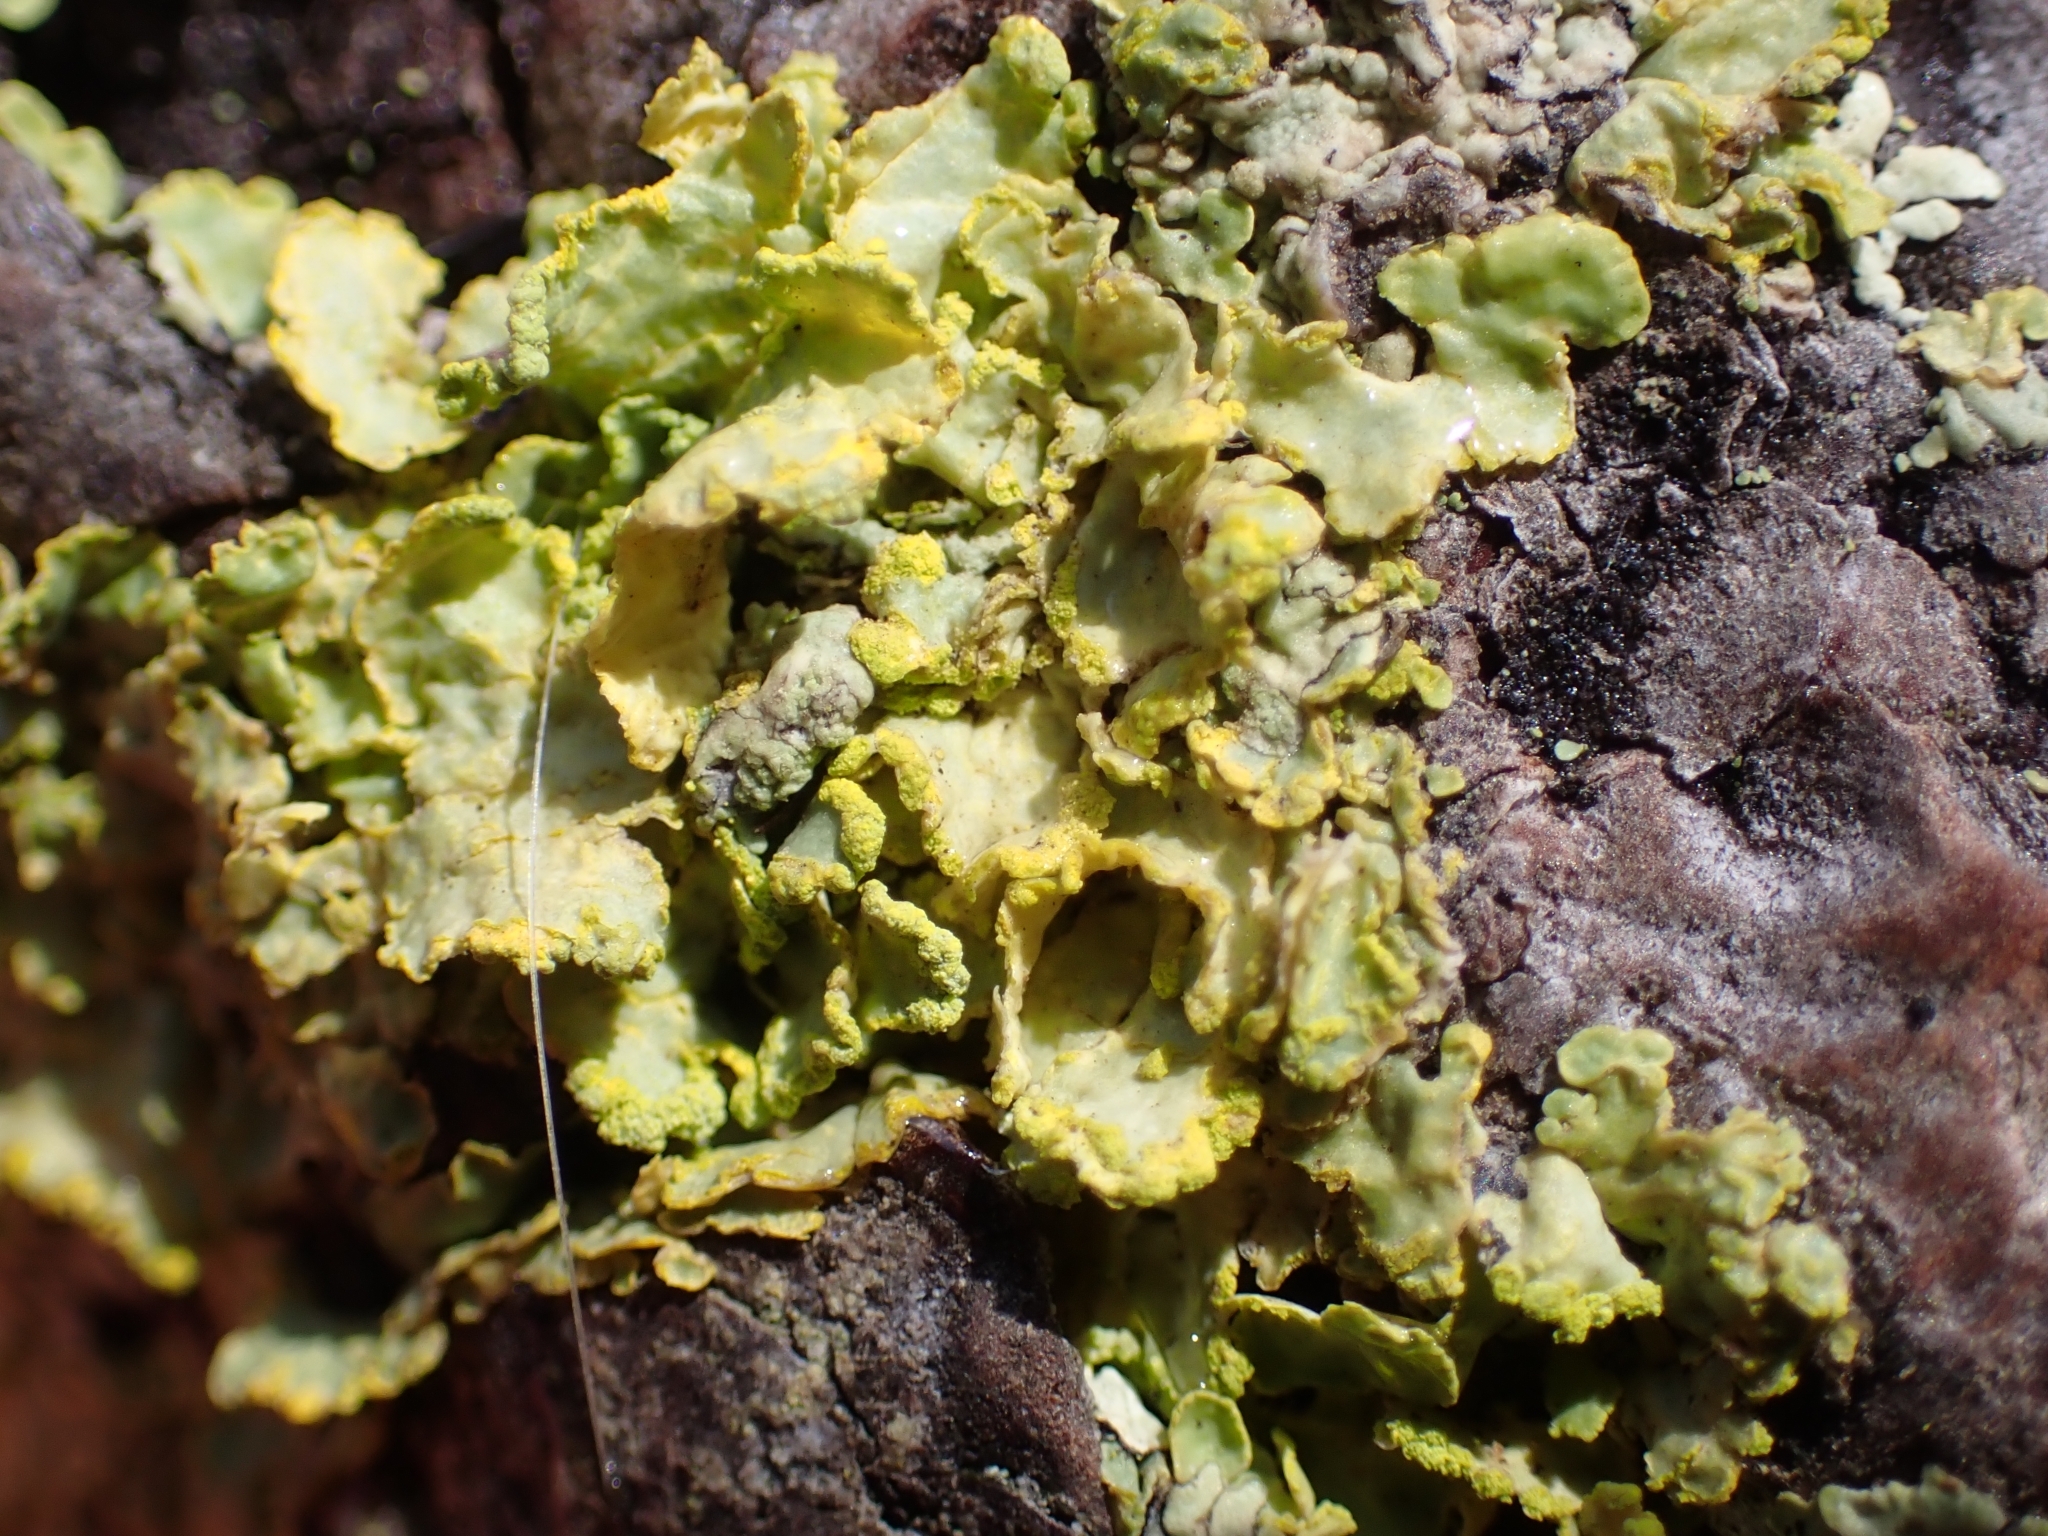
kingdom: Fungi
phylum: Ascomycota
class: Lecanoromycetes
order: Lecanorales
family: Parmeliaceae
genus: Vulpicida
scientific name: Vulpicida pinastri
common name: Powdered sunshine lichen
